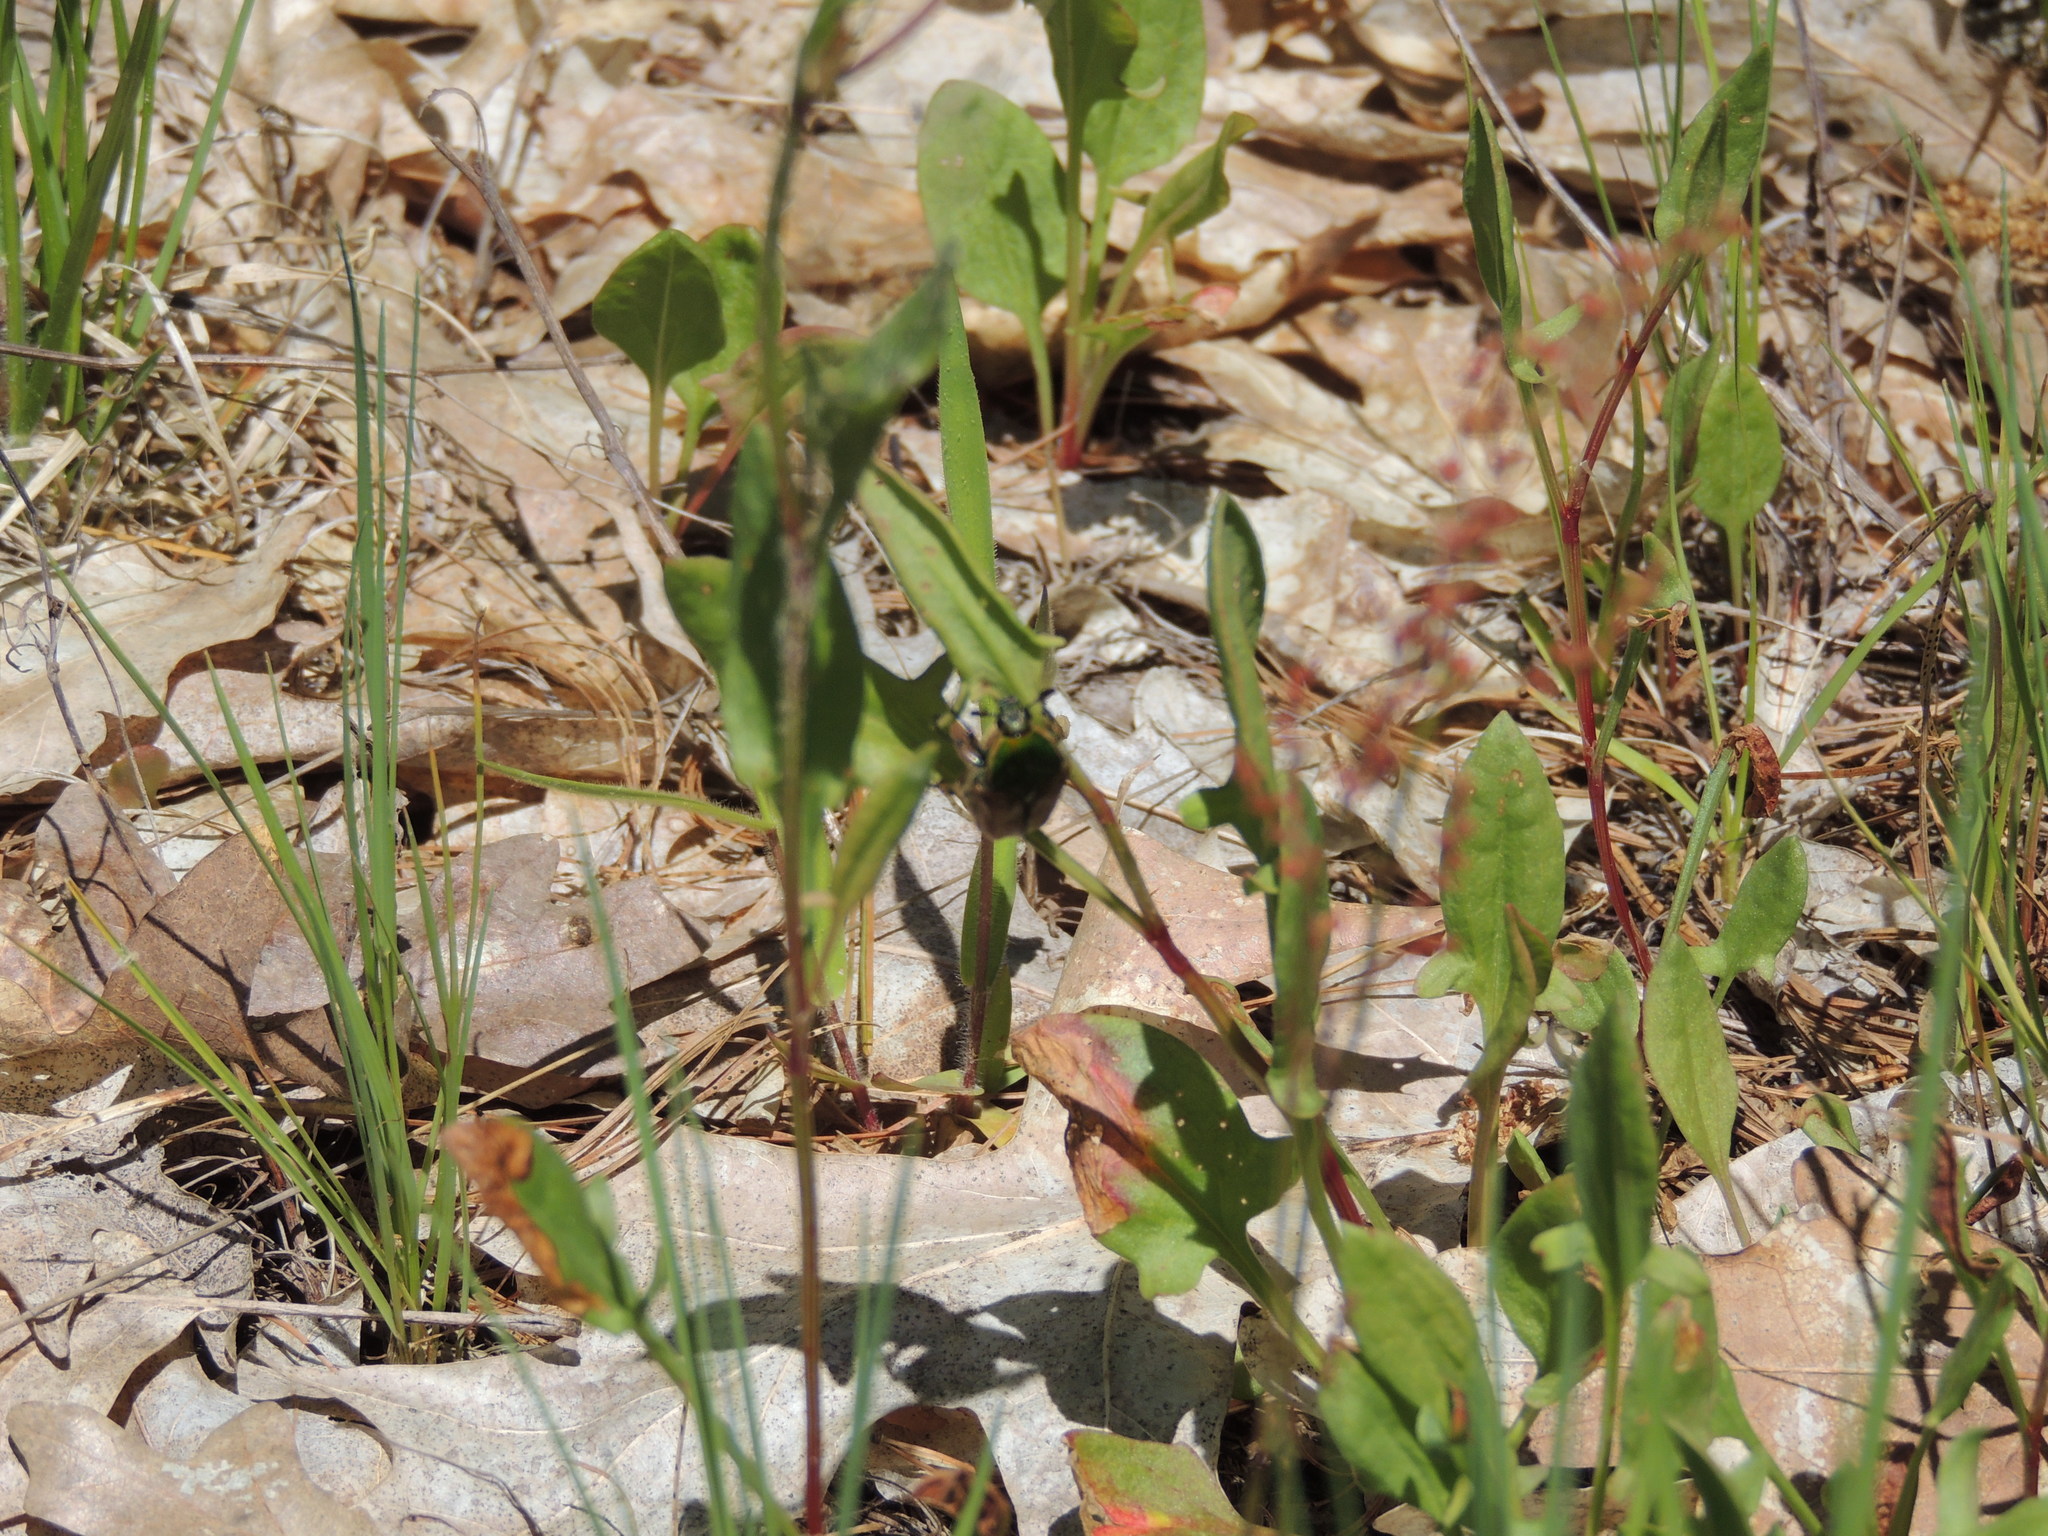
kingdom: Animalia
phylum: Arthropoda
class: Insecta
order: Coleoptera
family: Scarabaeidae
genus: Euphoria
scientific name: Euphoria fulgida
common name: Emerald euphoria
